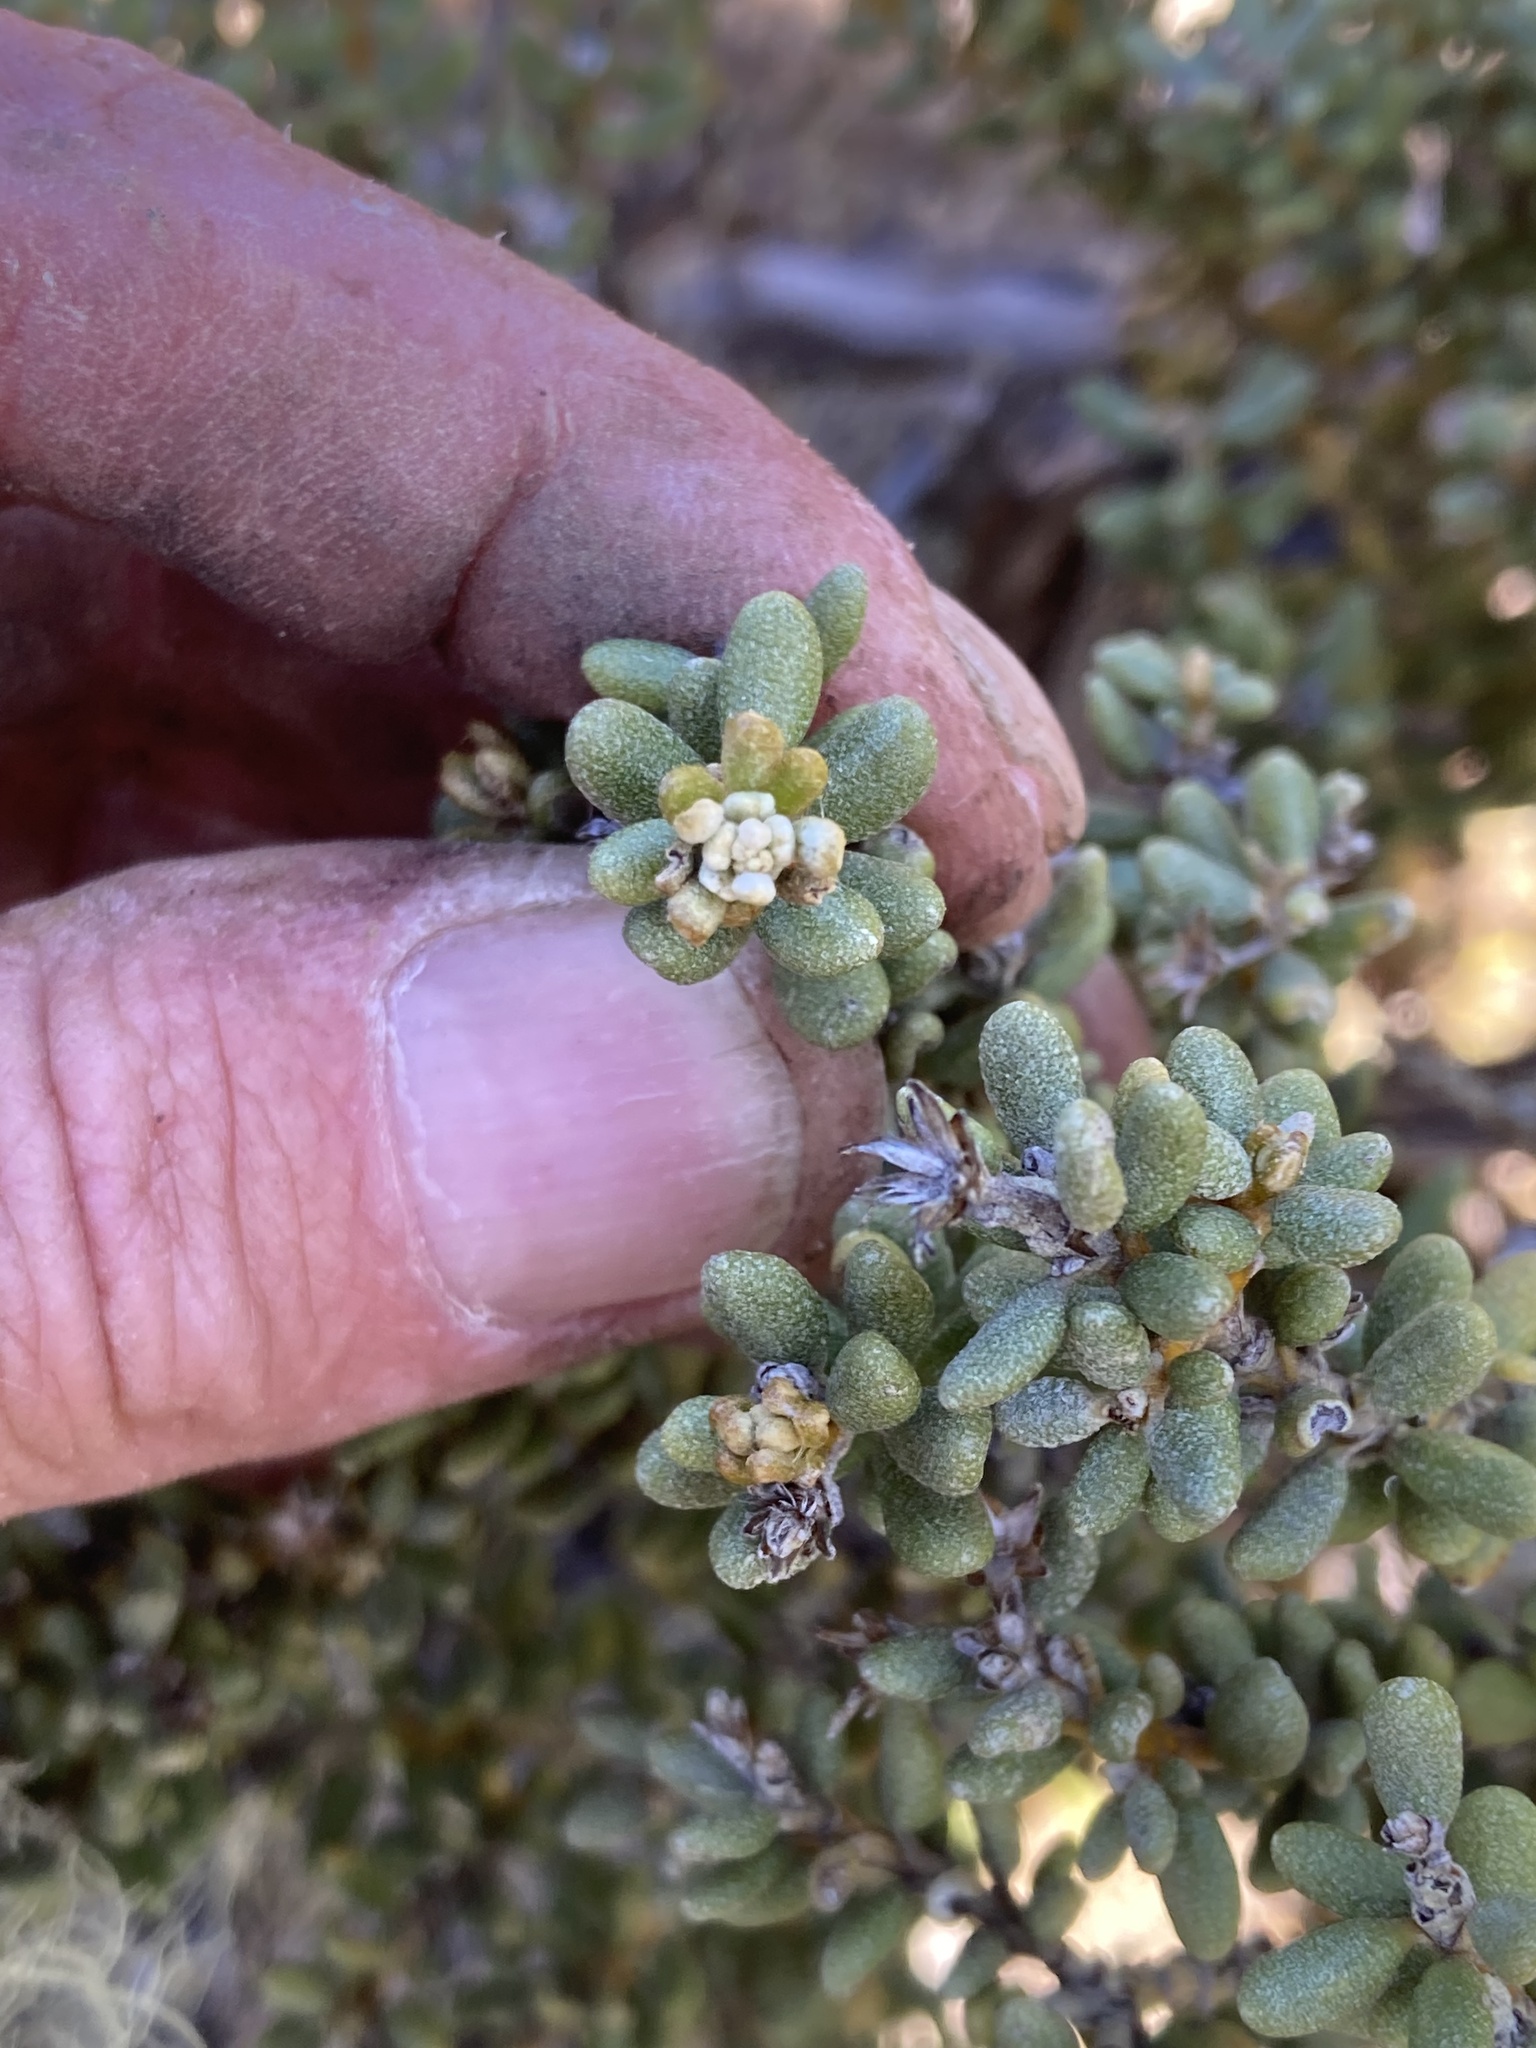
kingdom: Plantae
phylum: Tracheophyta
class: Magnoliopsida
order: Asterales
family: Asteraceae
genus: Olearia
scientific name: Olearia cymbifolia
